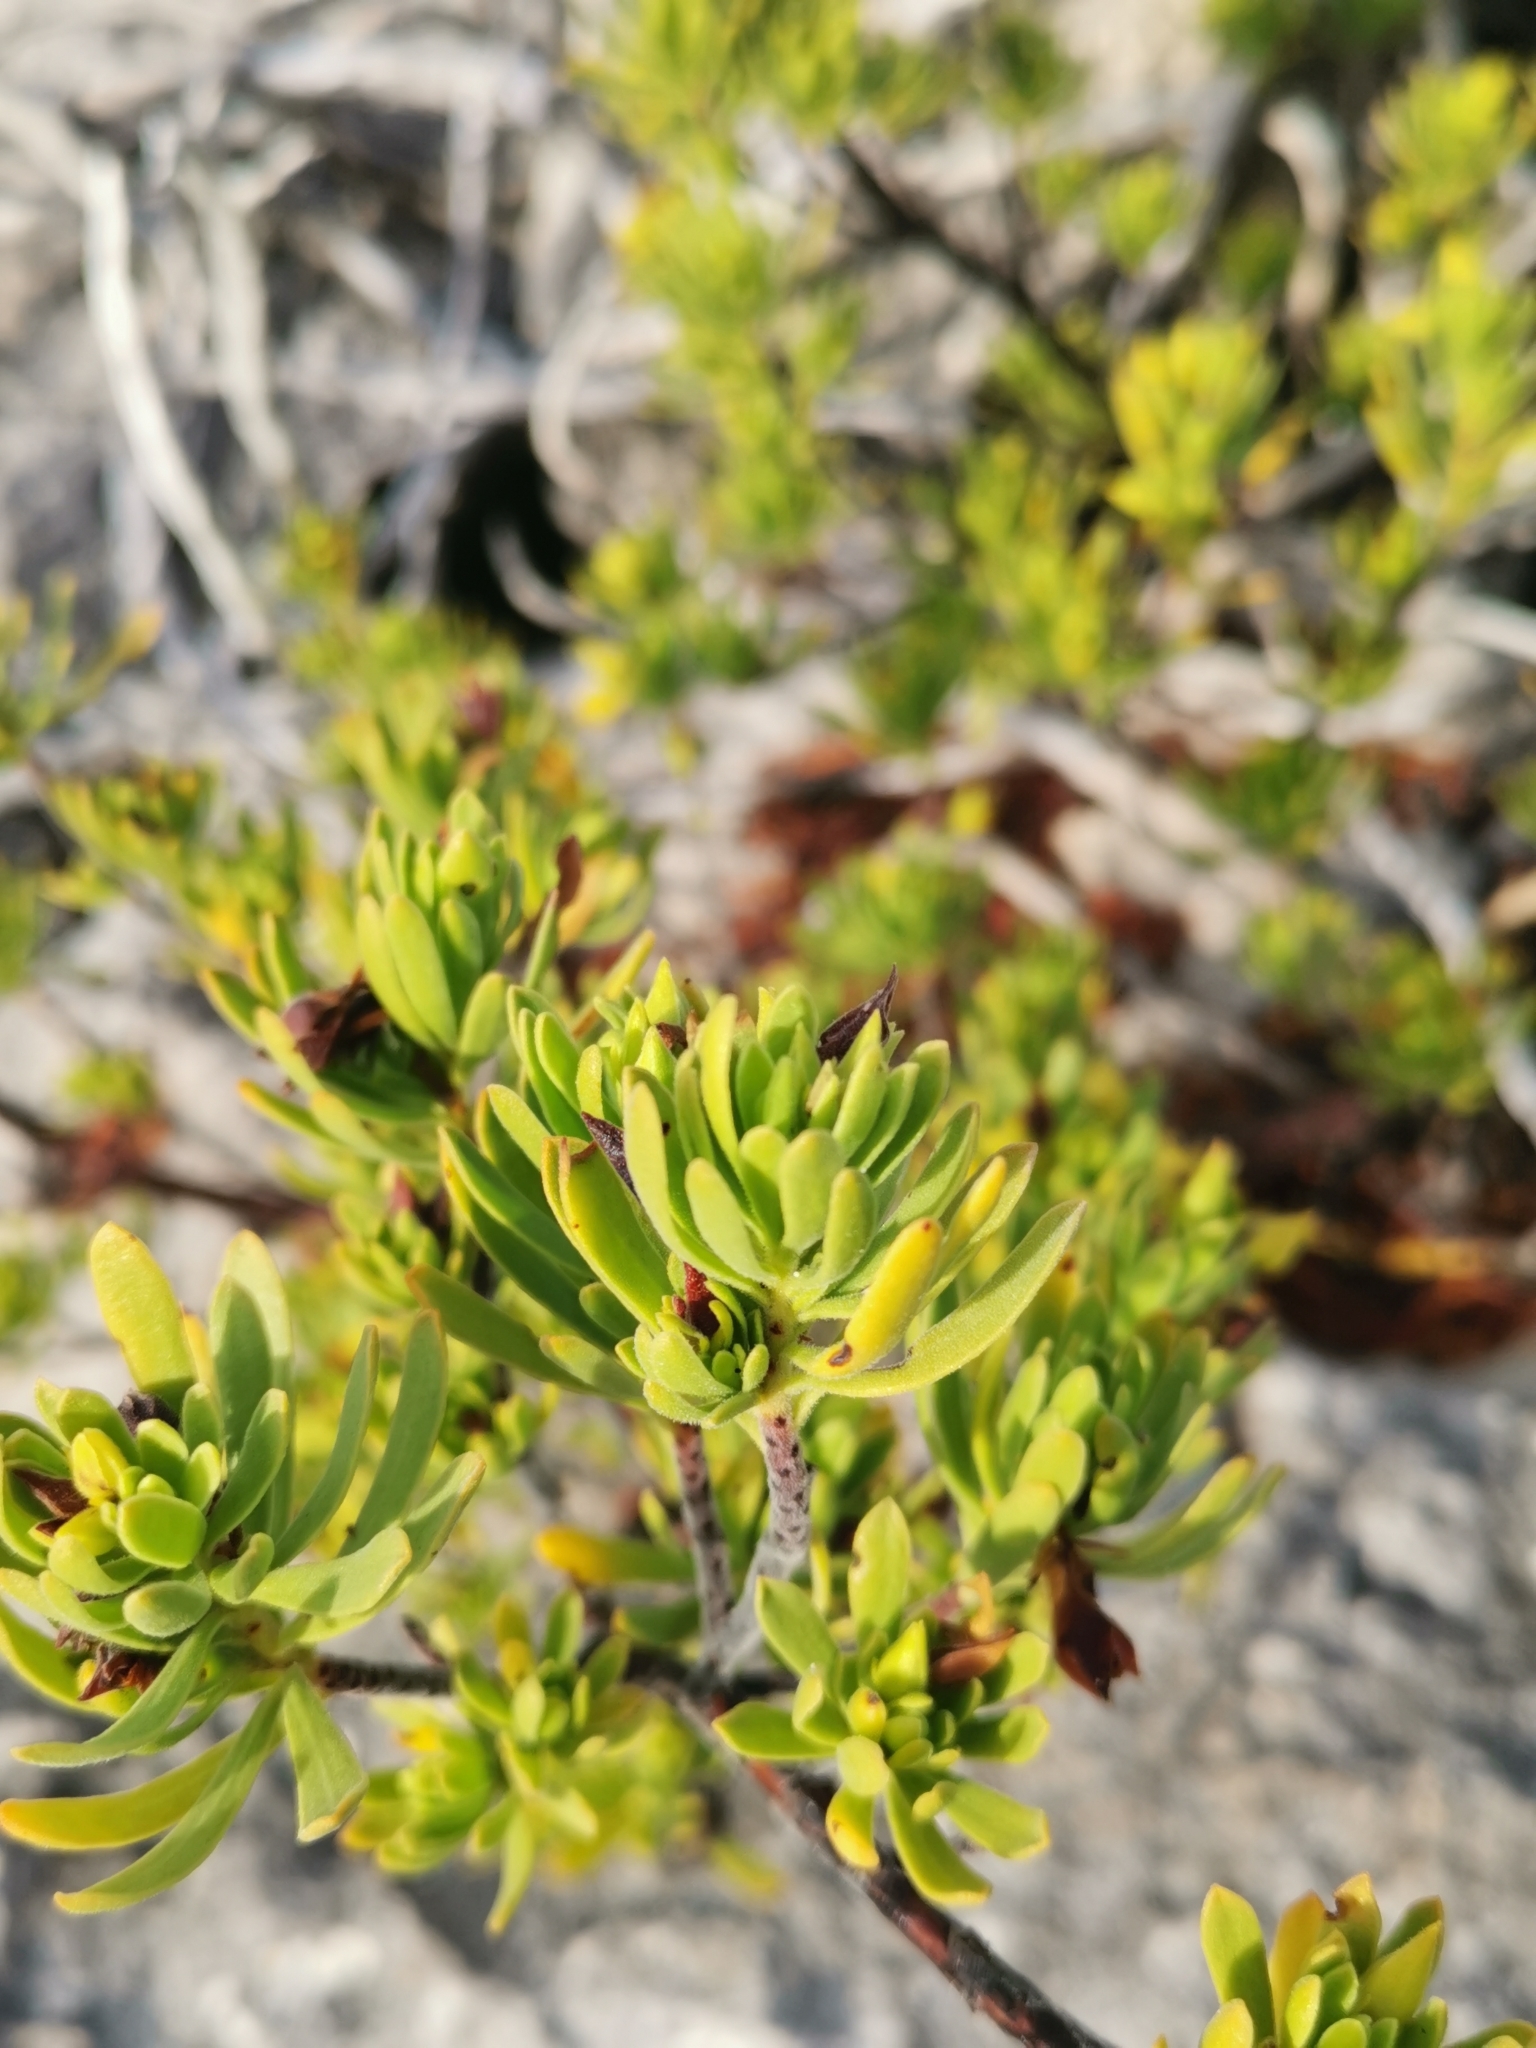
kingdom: Plantae
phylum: Tracheophyta
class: Magnoliopsida
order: Fabales
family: Surianaceae
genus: Suriana
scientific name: Suriana maritima
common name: Bay-cedar
